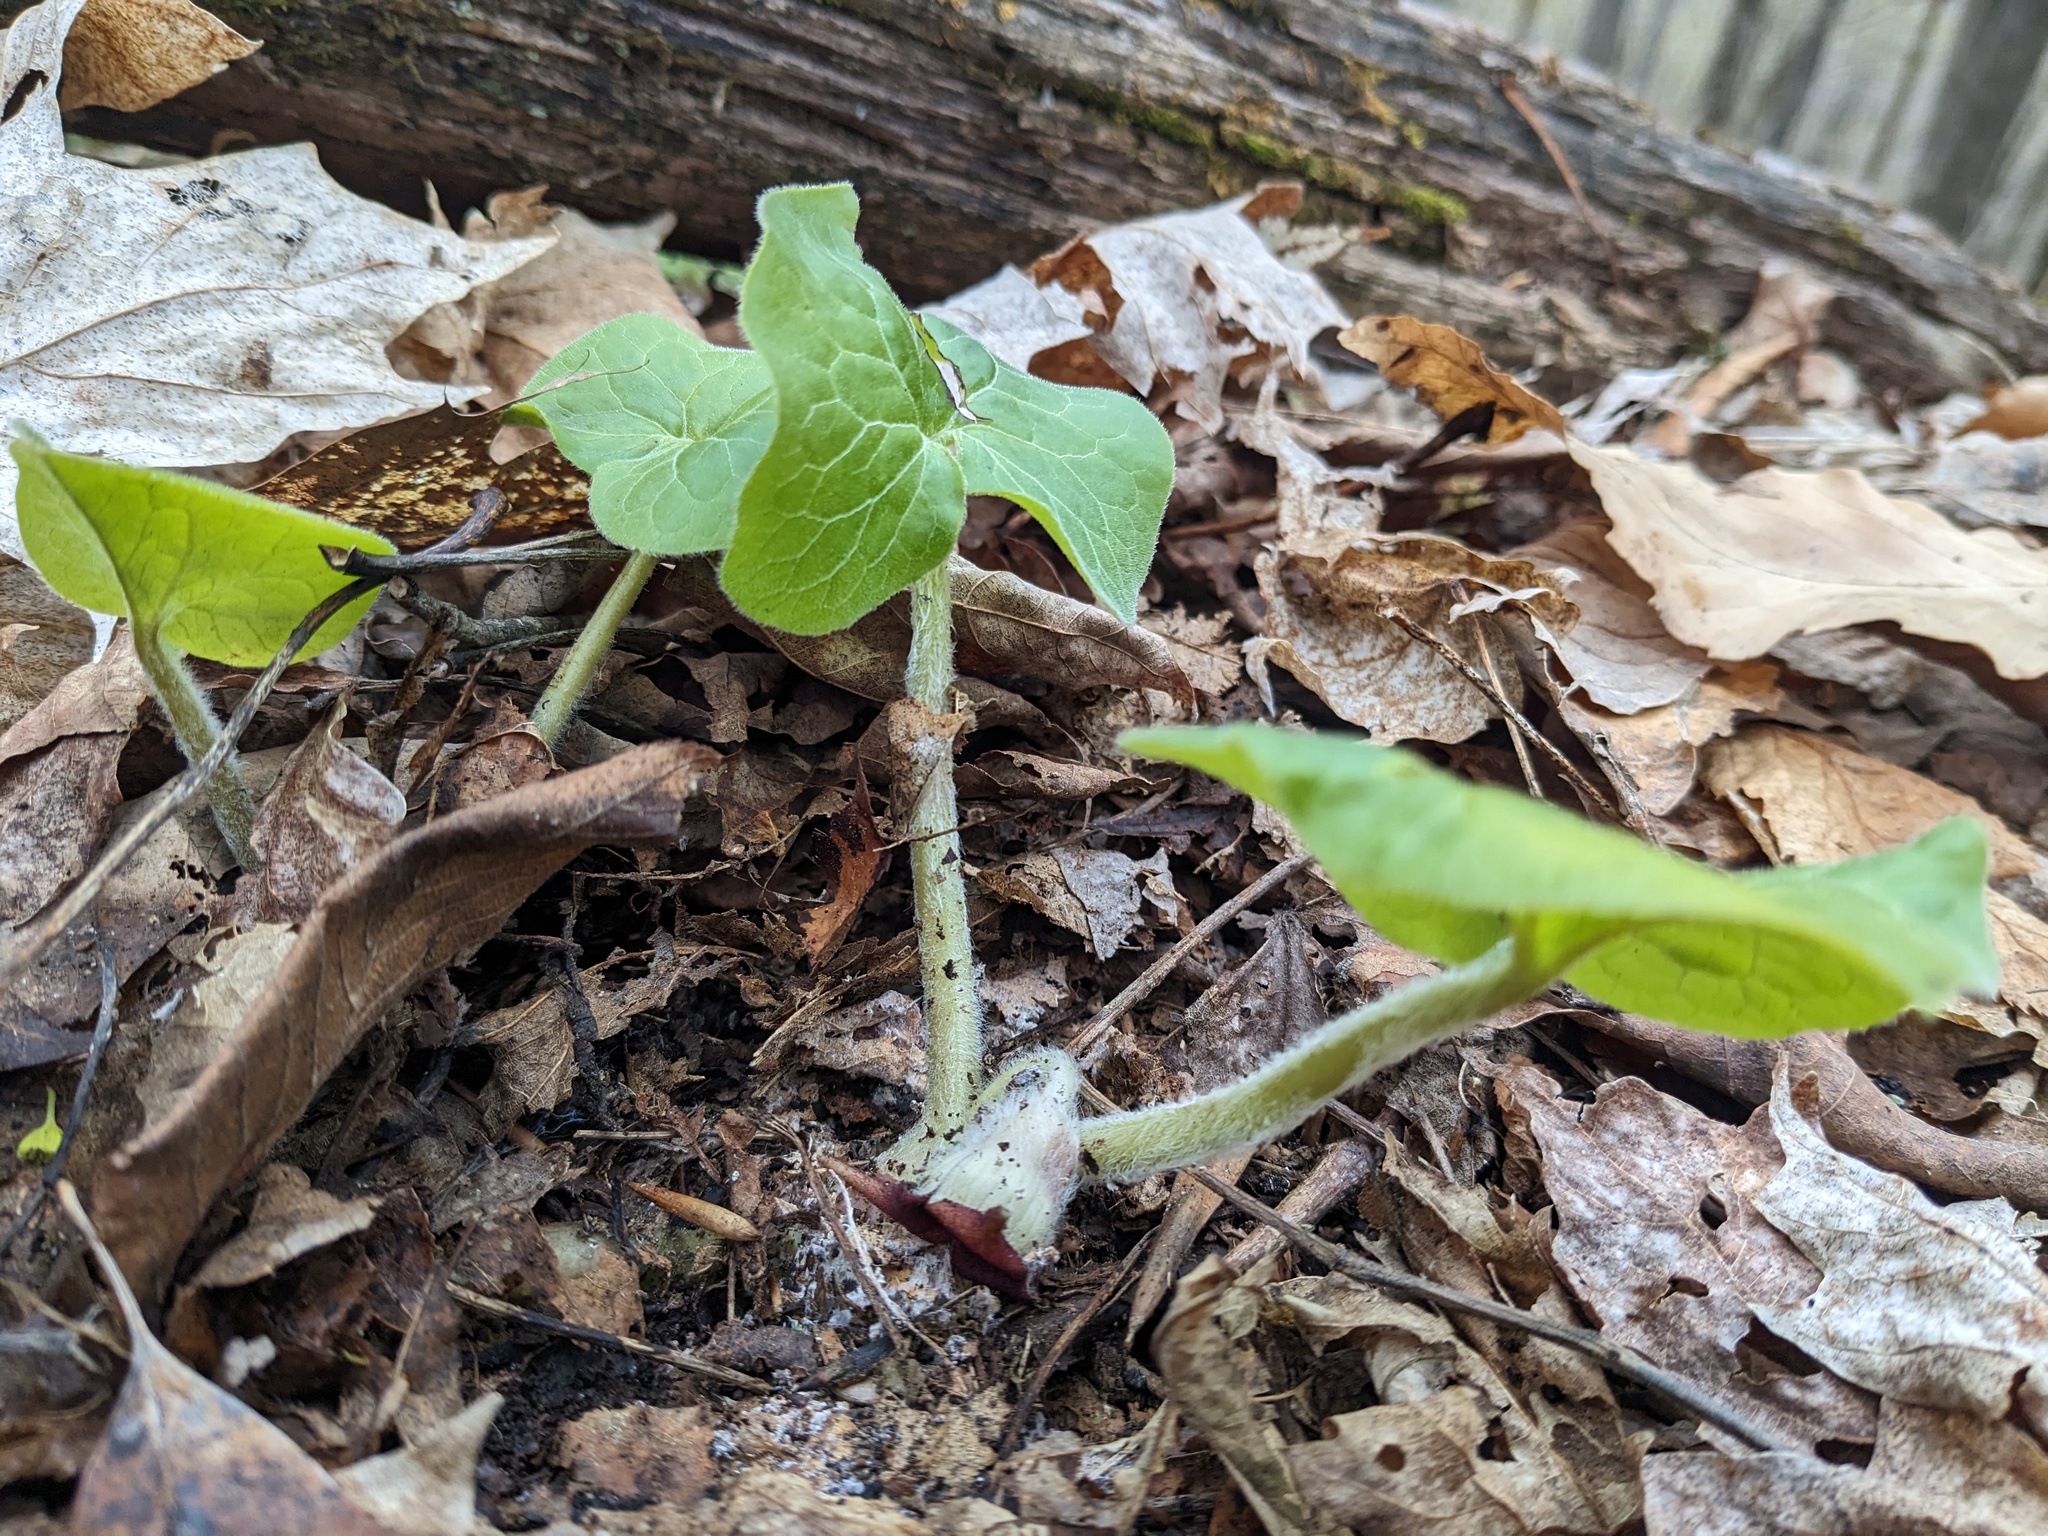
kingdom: Plantae
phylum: Tracheophyta
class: Magnoliopsida
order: Piperales
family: Aristolochiaceae
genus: Asarum
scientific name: Asarum canadense
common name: Wild ginger
